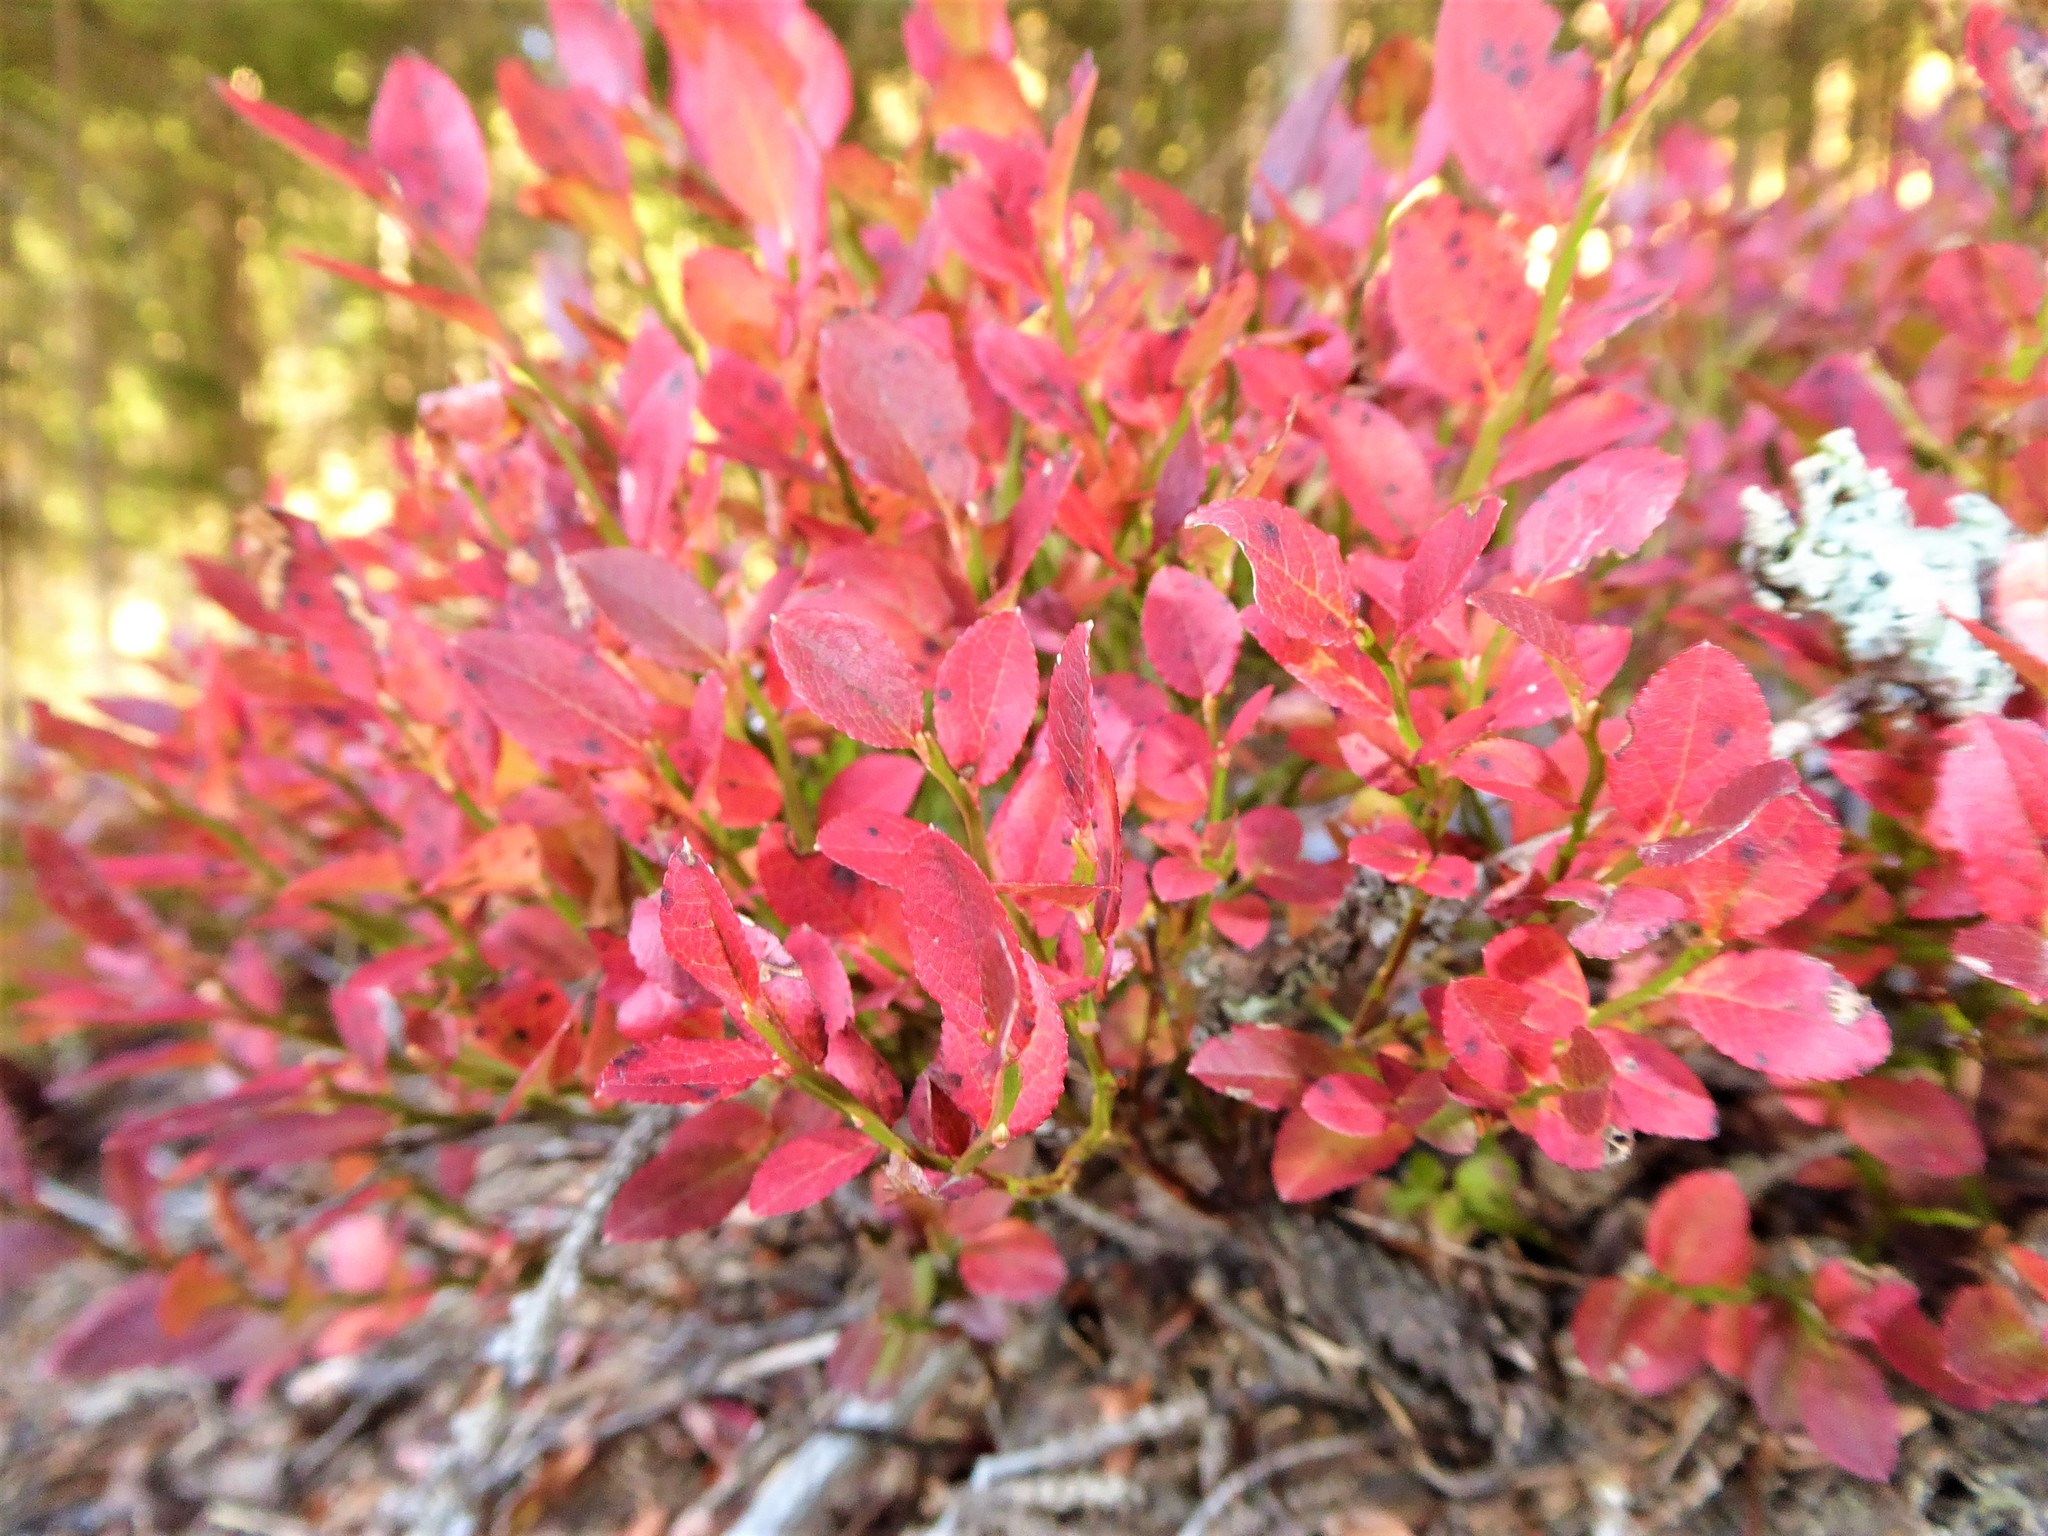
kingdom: Plantae
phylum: Tracheophyta
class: Magnoliopsida
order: Ericales
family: Ericaceae
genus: Vaccinium
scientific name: Vaccinium myrtillus
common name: Bilberry
